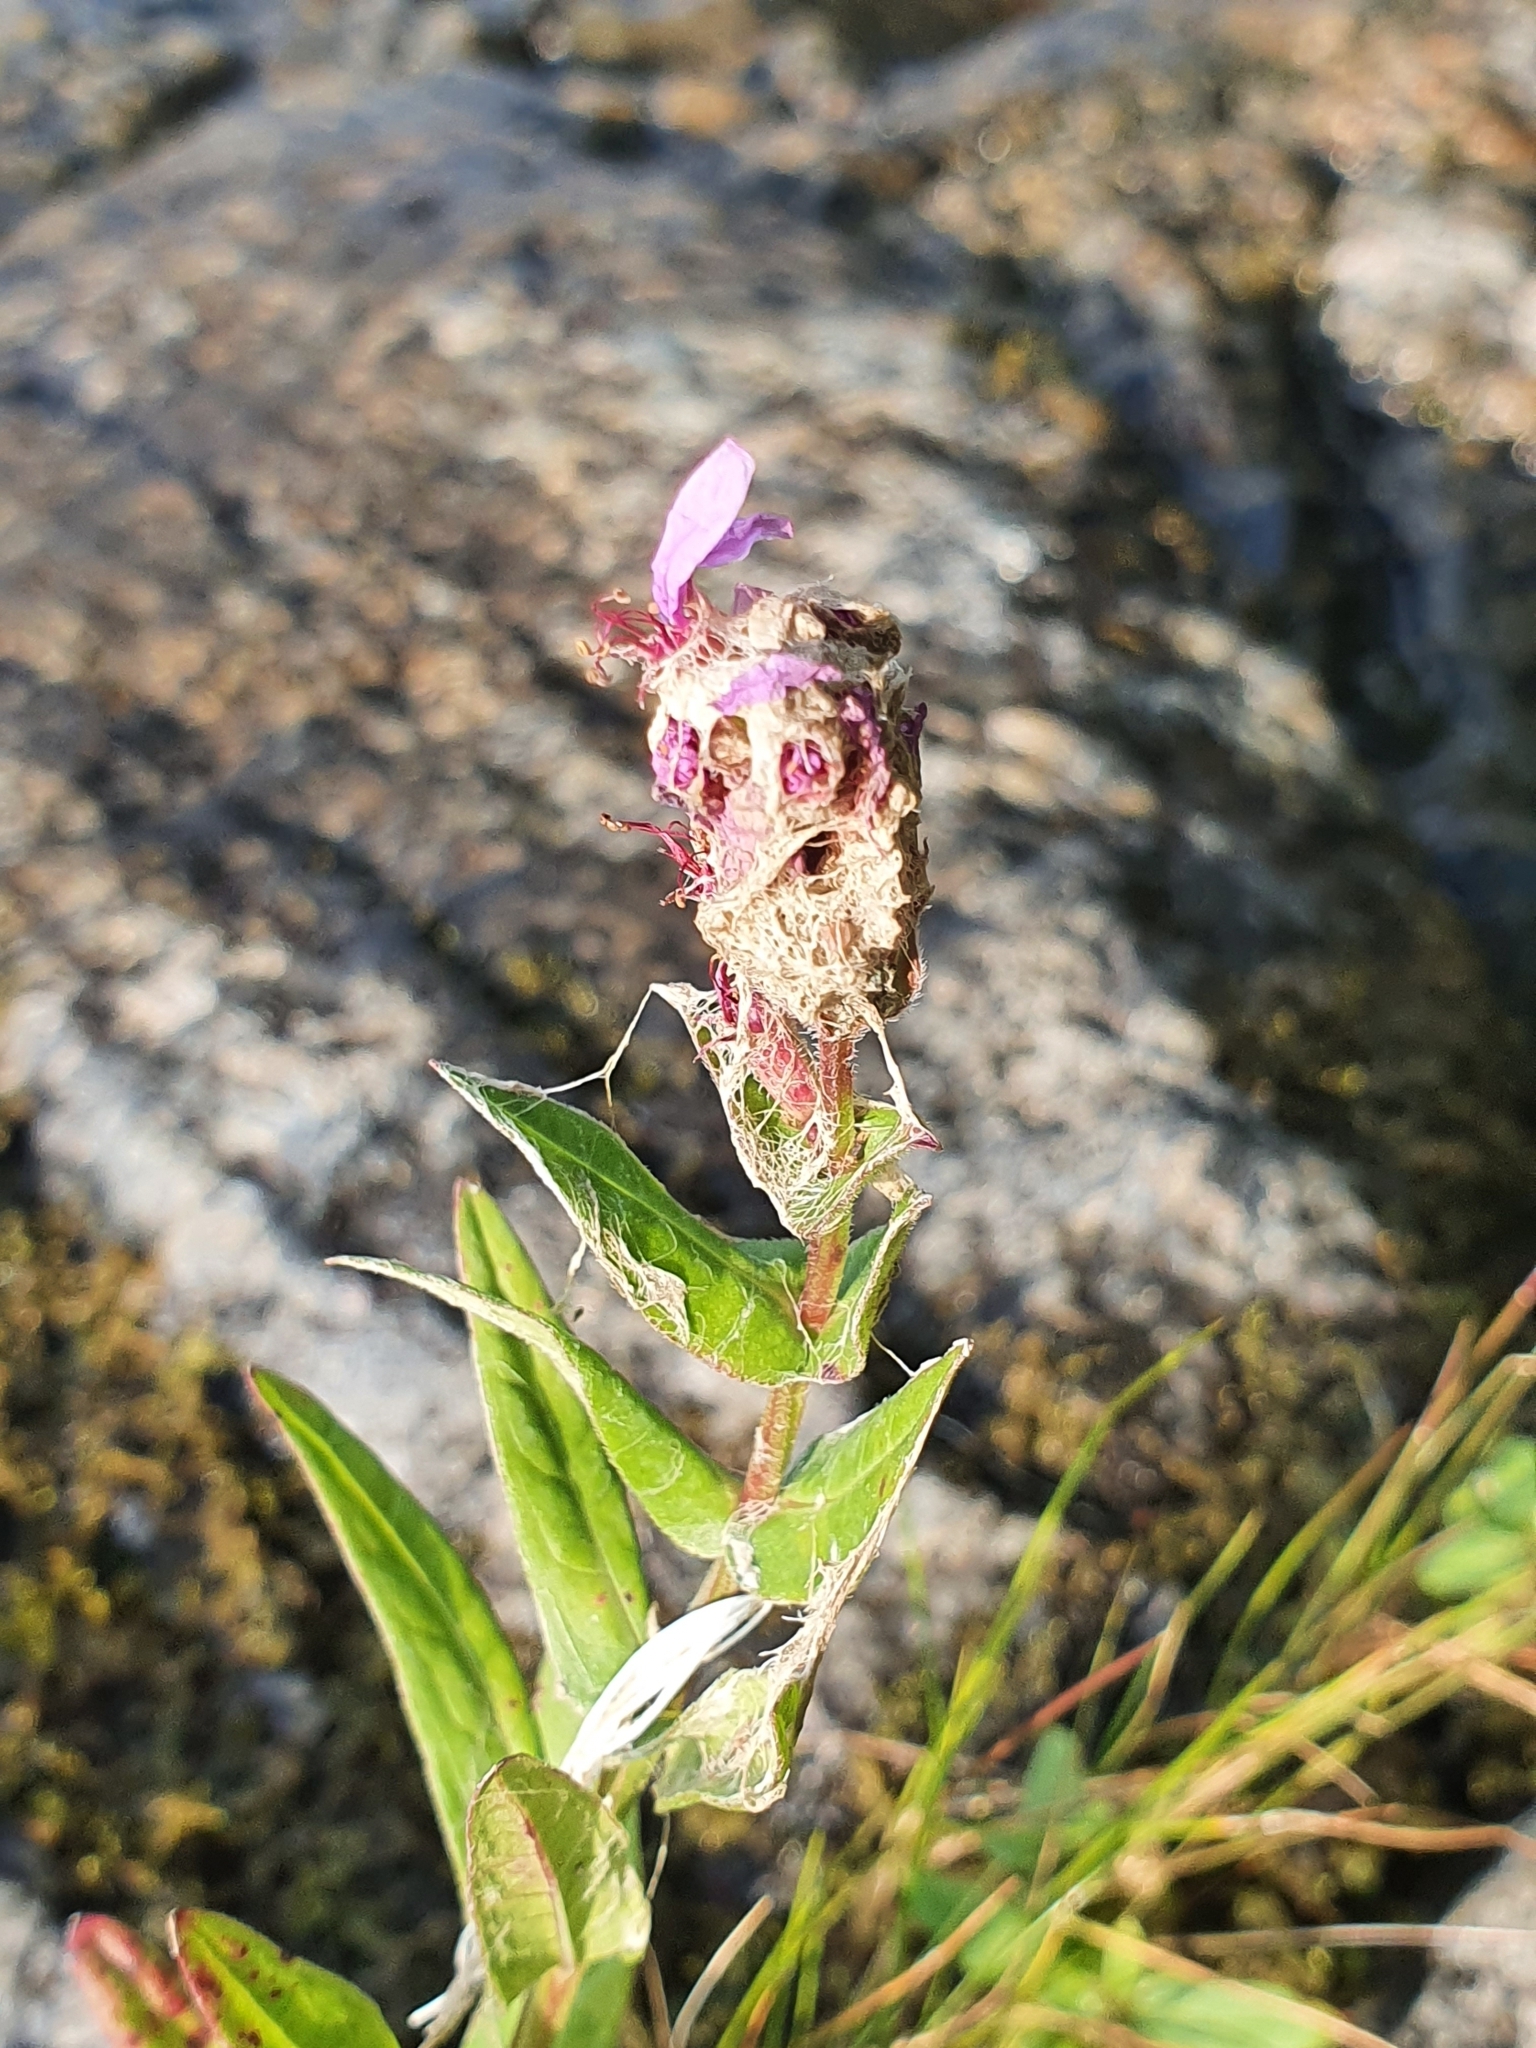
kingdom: Plantae
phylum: Tracheophyta
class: Magnoliopsida
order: Myrtales
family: Lythraceae
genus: Lythrum
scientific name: Lythrum salicaria
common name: Purple loosestrife
